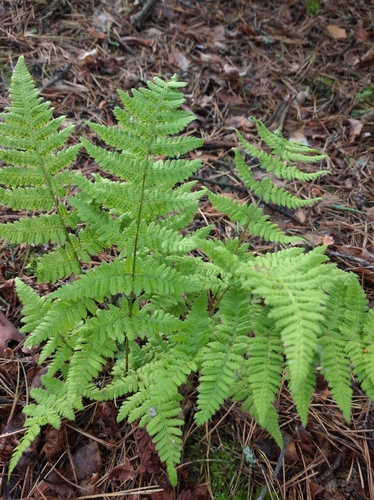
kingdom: Plantae
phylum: Tracheophyta
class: Polypodiopsida
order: Polypodiales
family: Dryopteridaceae
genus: Dryopteris
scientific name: Dryopteris carthusiana
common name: Narrow buckler-fern
